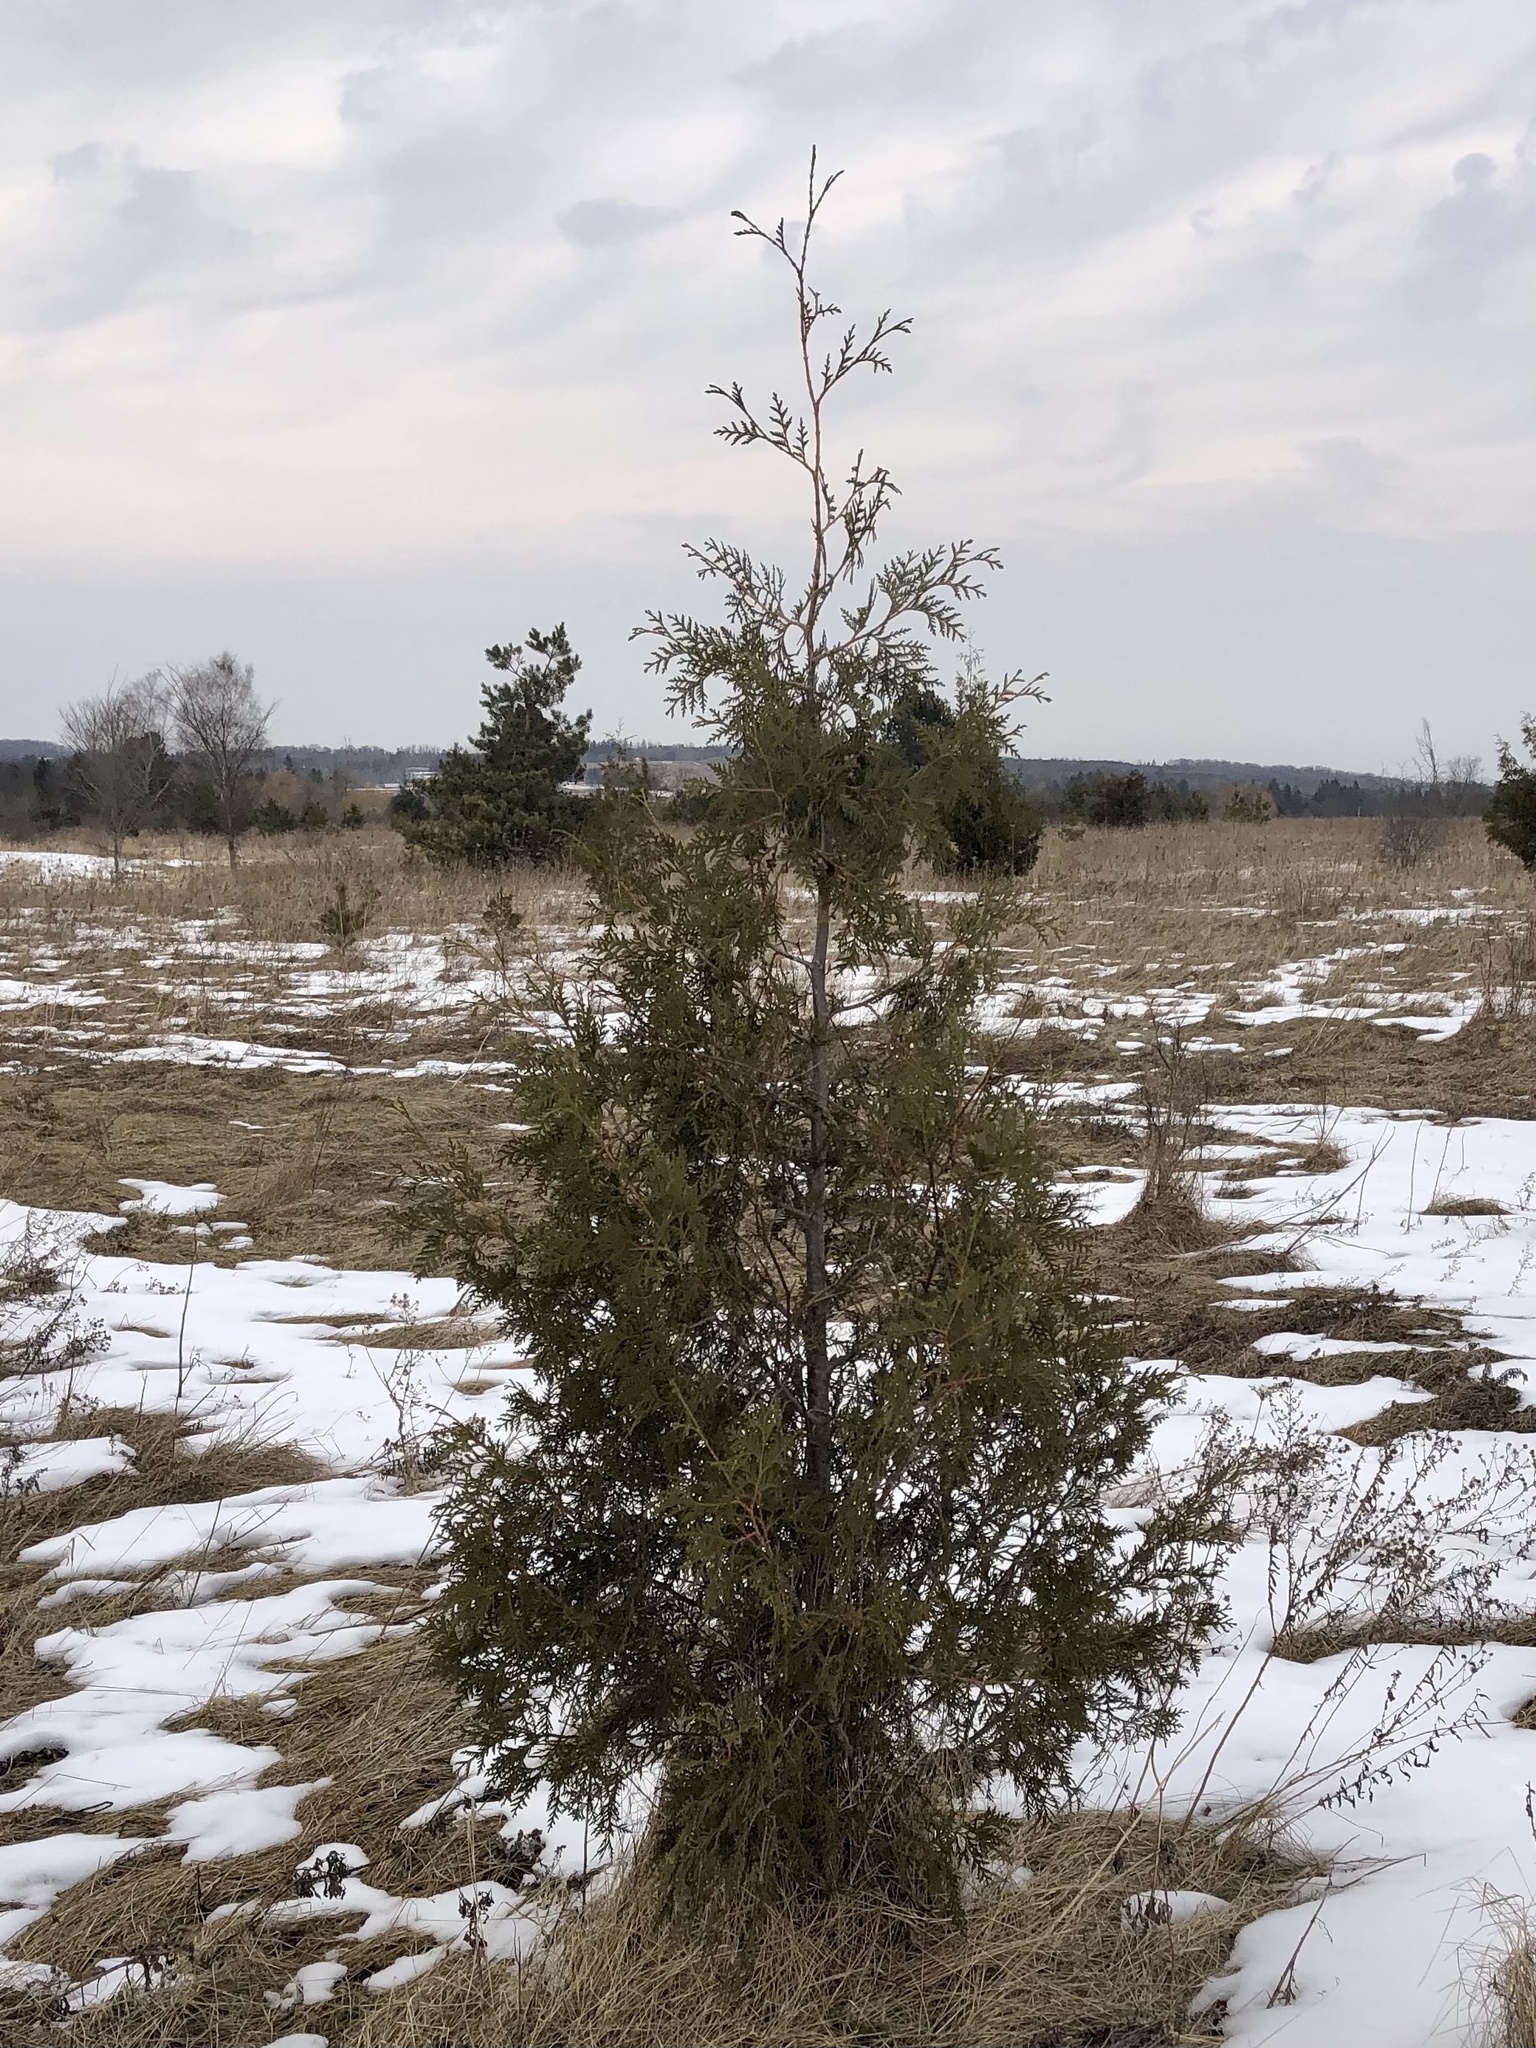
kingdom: Plantae
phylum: Tracheophyta
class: Pinopsida
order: Pinales
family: Cupressaceae
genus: Thuja
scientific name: Thuja occidentalis
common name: Northern white-cedar
